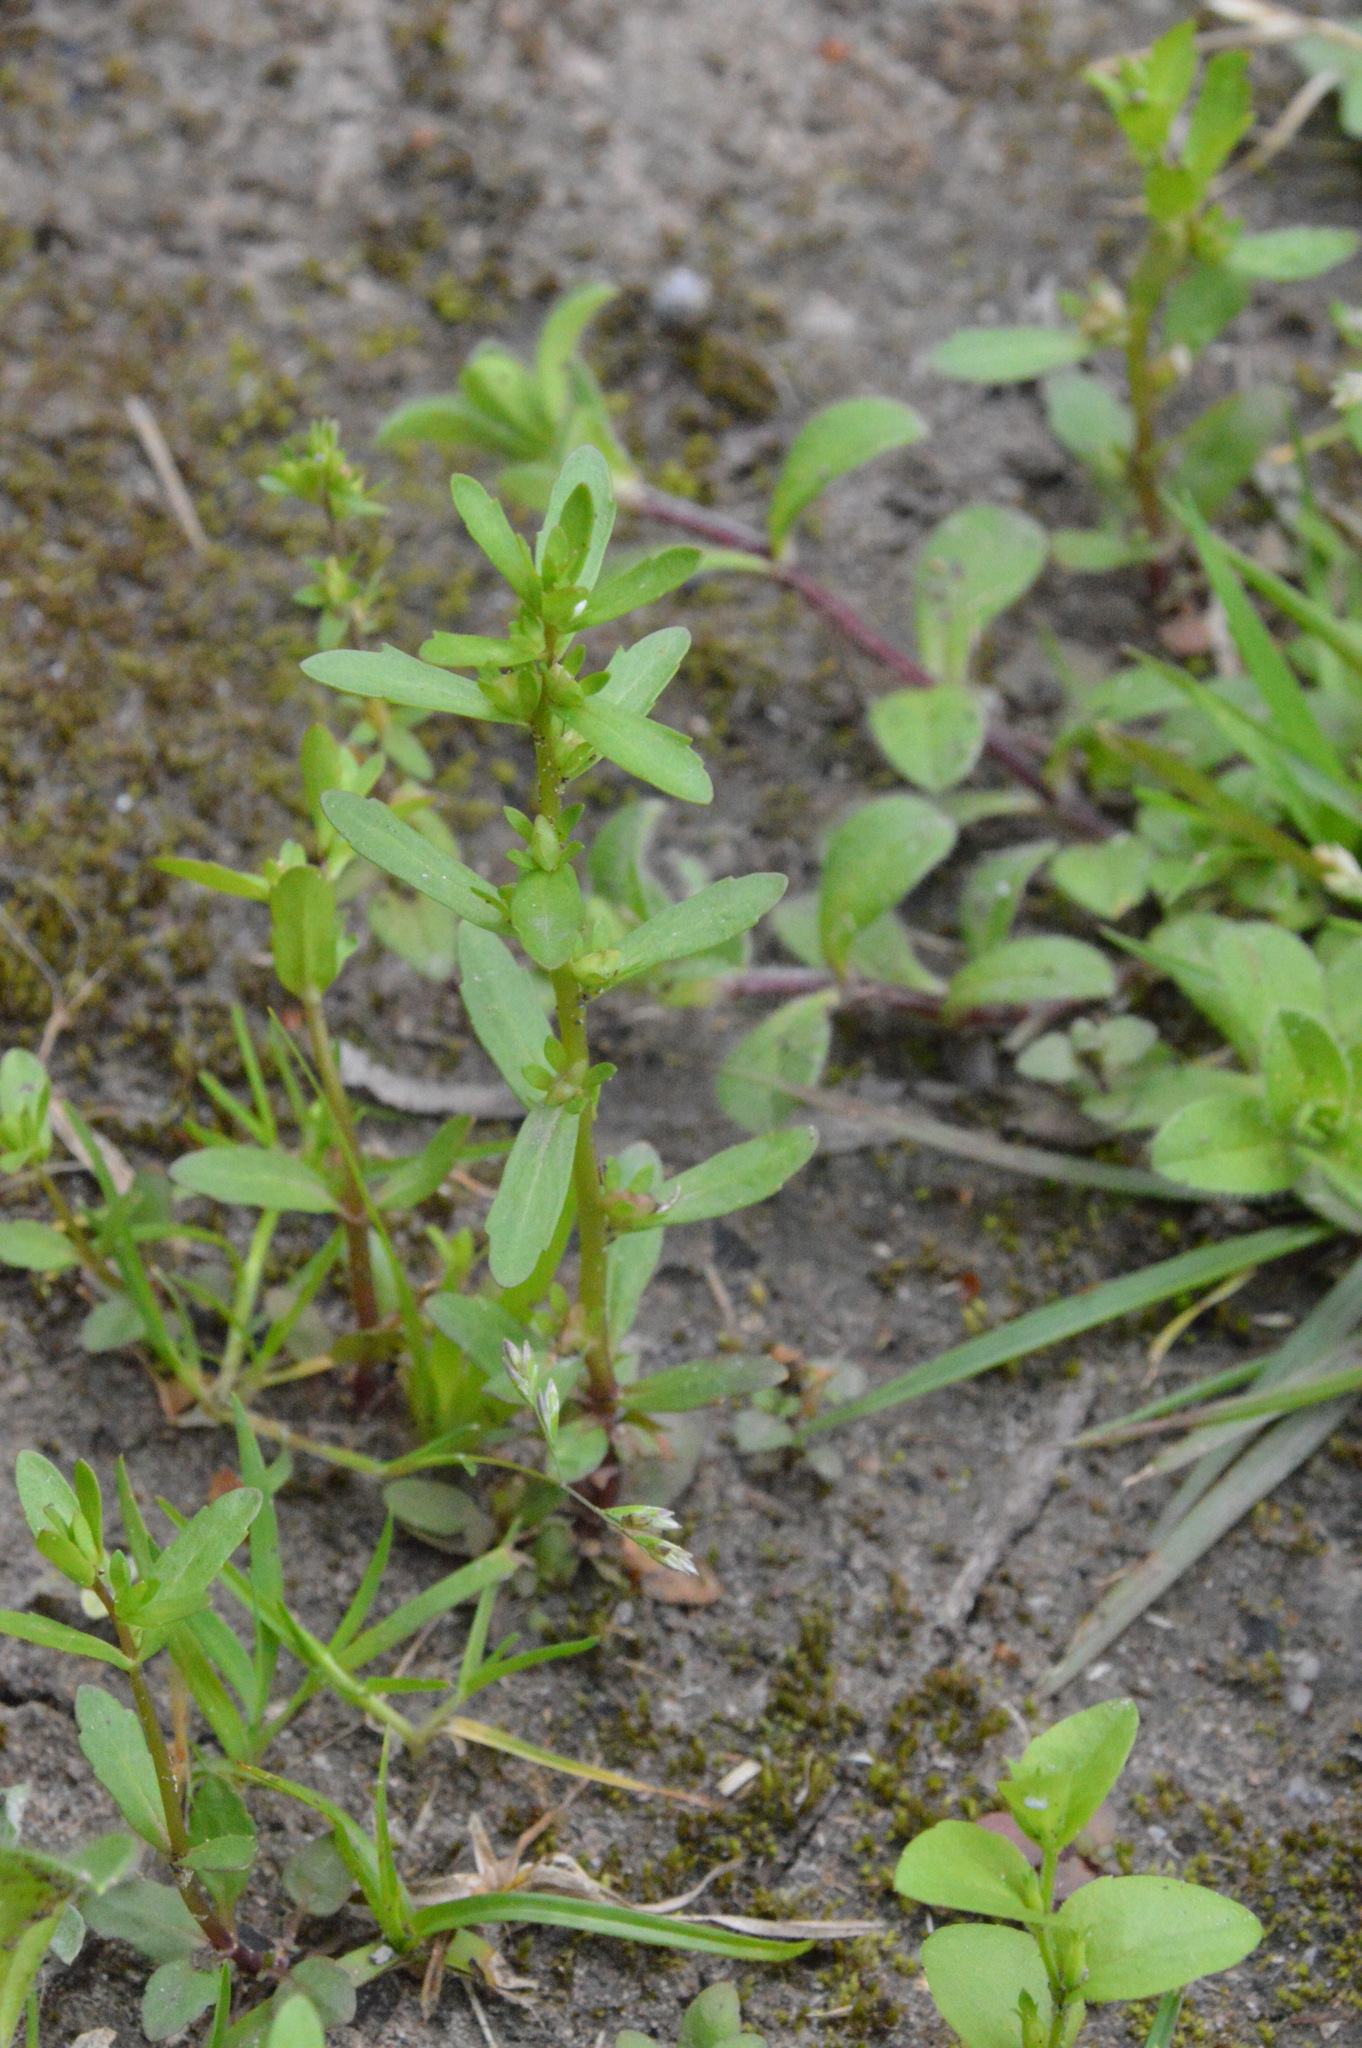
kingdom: Plantae
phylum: Tracheophyta
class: Magnoliopsida
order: Lamiales
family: Plantaginaceae
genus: Veronica
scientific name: Veronica peregrina
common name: Neckweed
